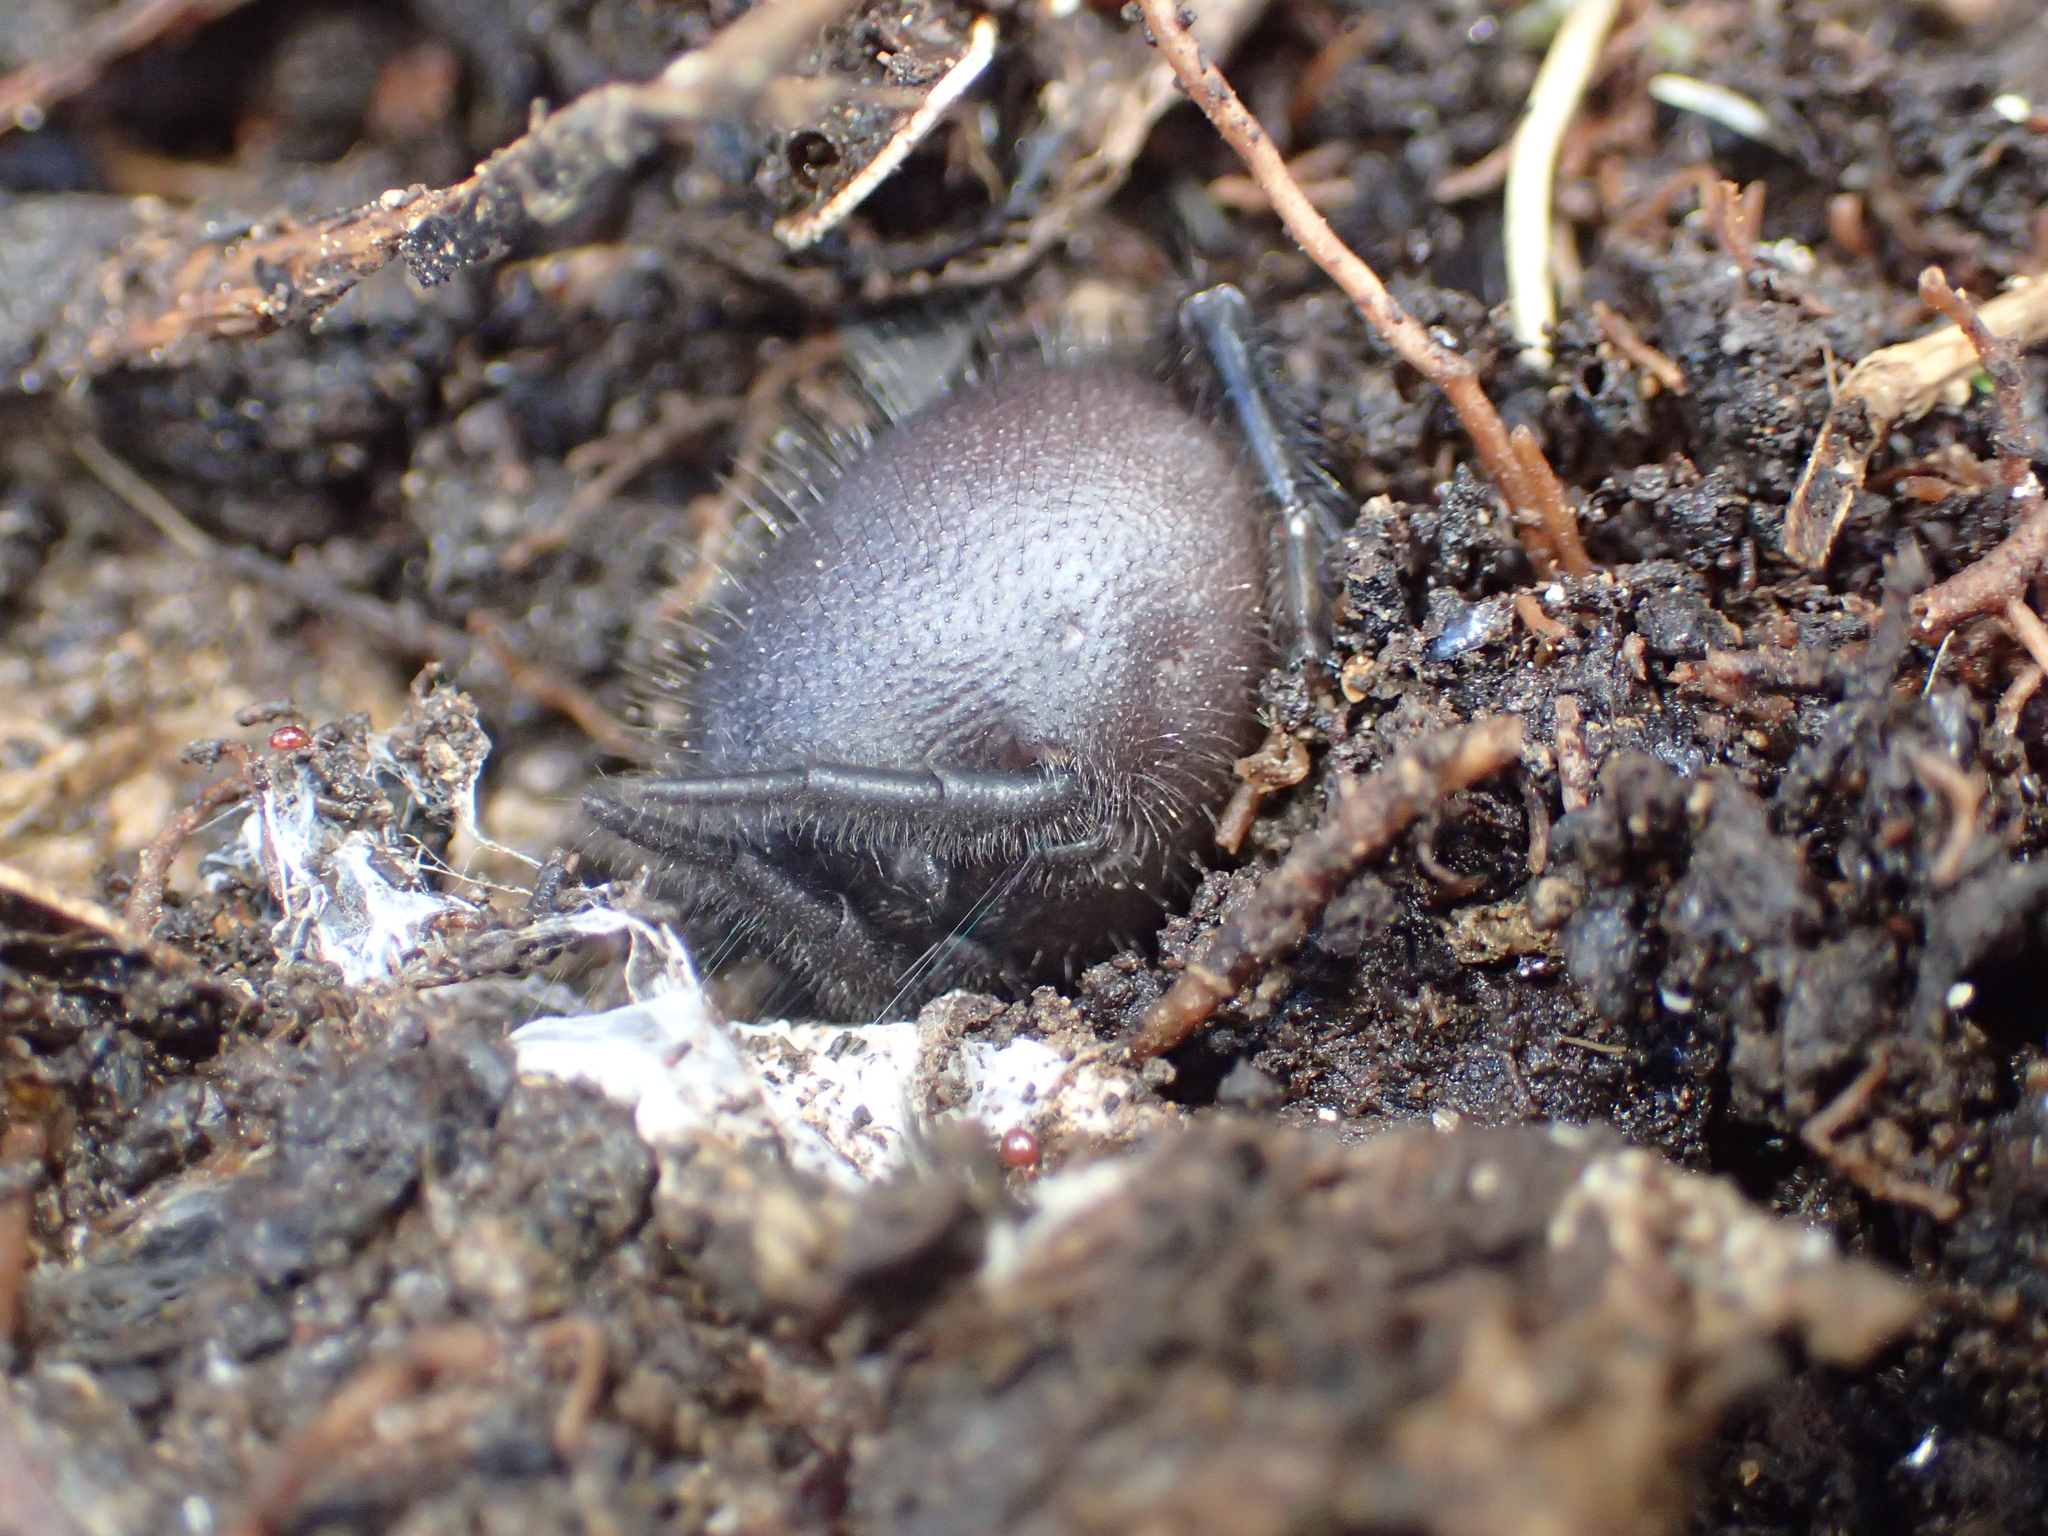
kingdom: Animalia
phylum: Arthropoda
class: Arachnida
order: Araneae
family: Porrhothelidae
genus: Porrhothele
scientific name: Porrhothele antipodiana
